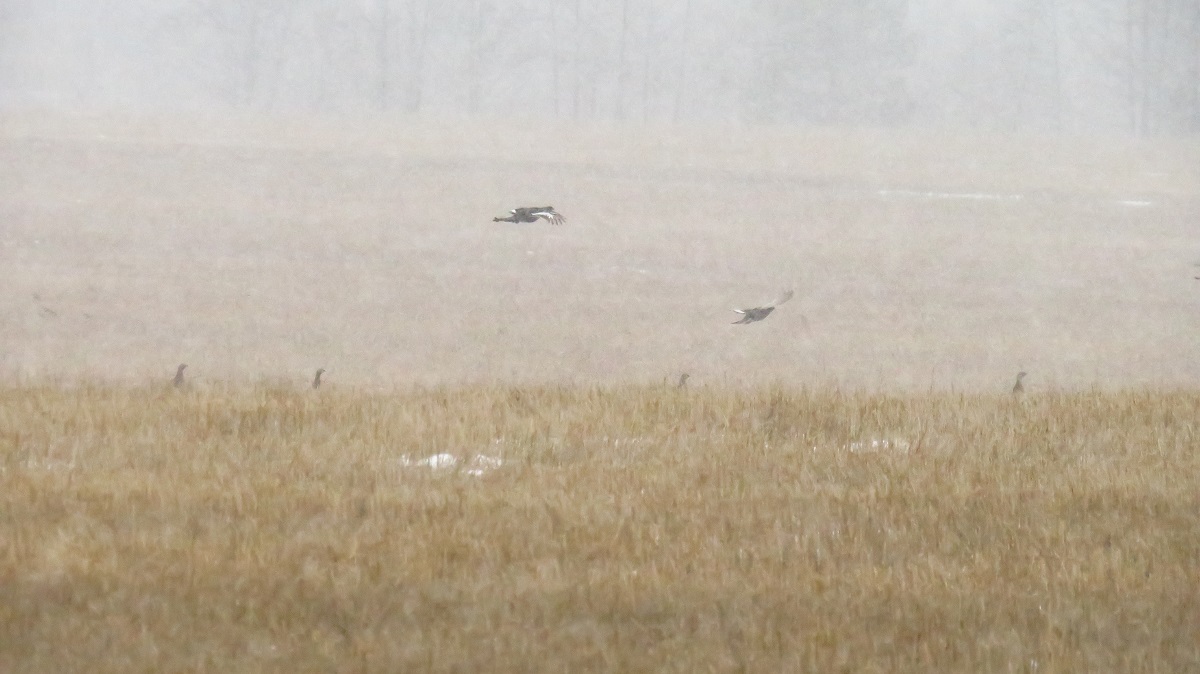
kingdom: Animalia
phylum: Chordata
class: Aves
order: Galliformes
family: Phasianidae
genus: Lyrurus
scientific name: Lyrurus tetrix
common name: Black grouse
